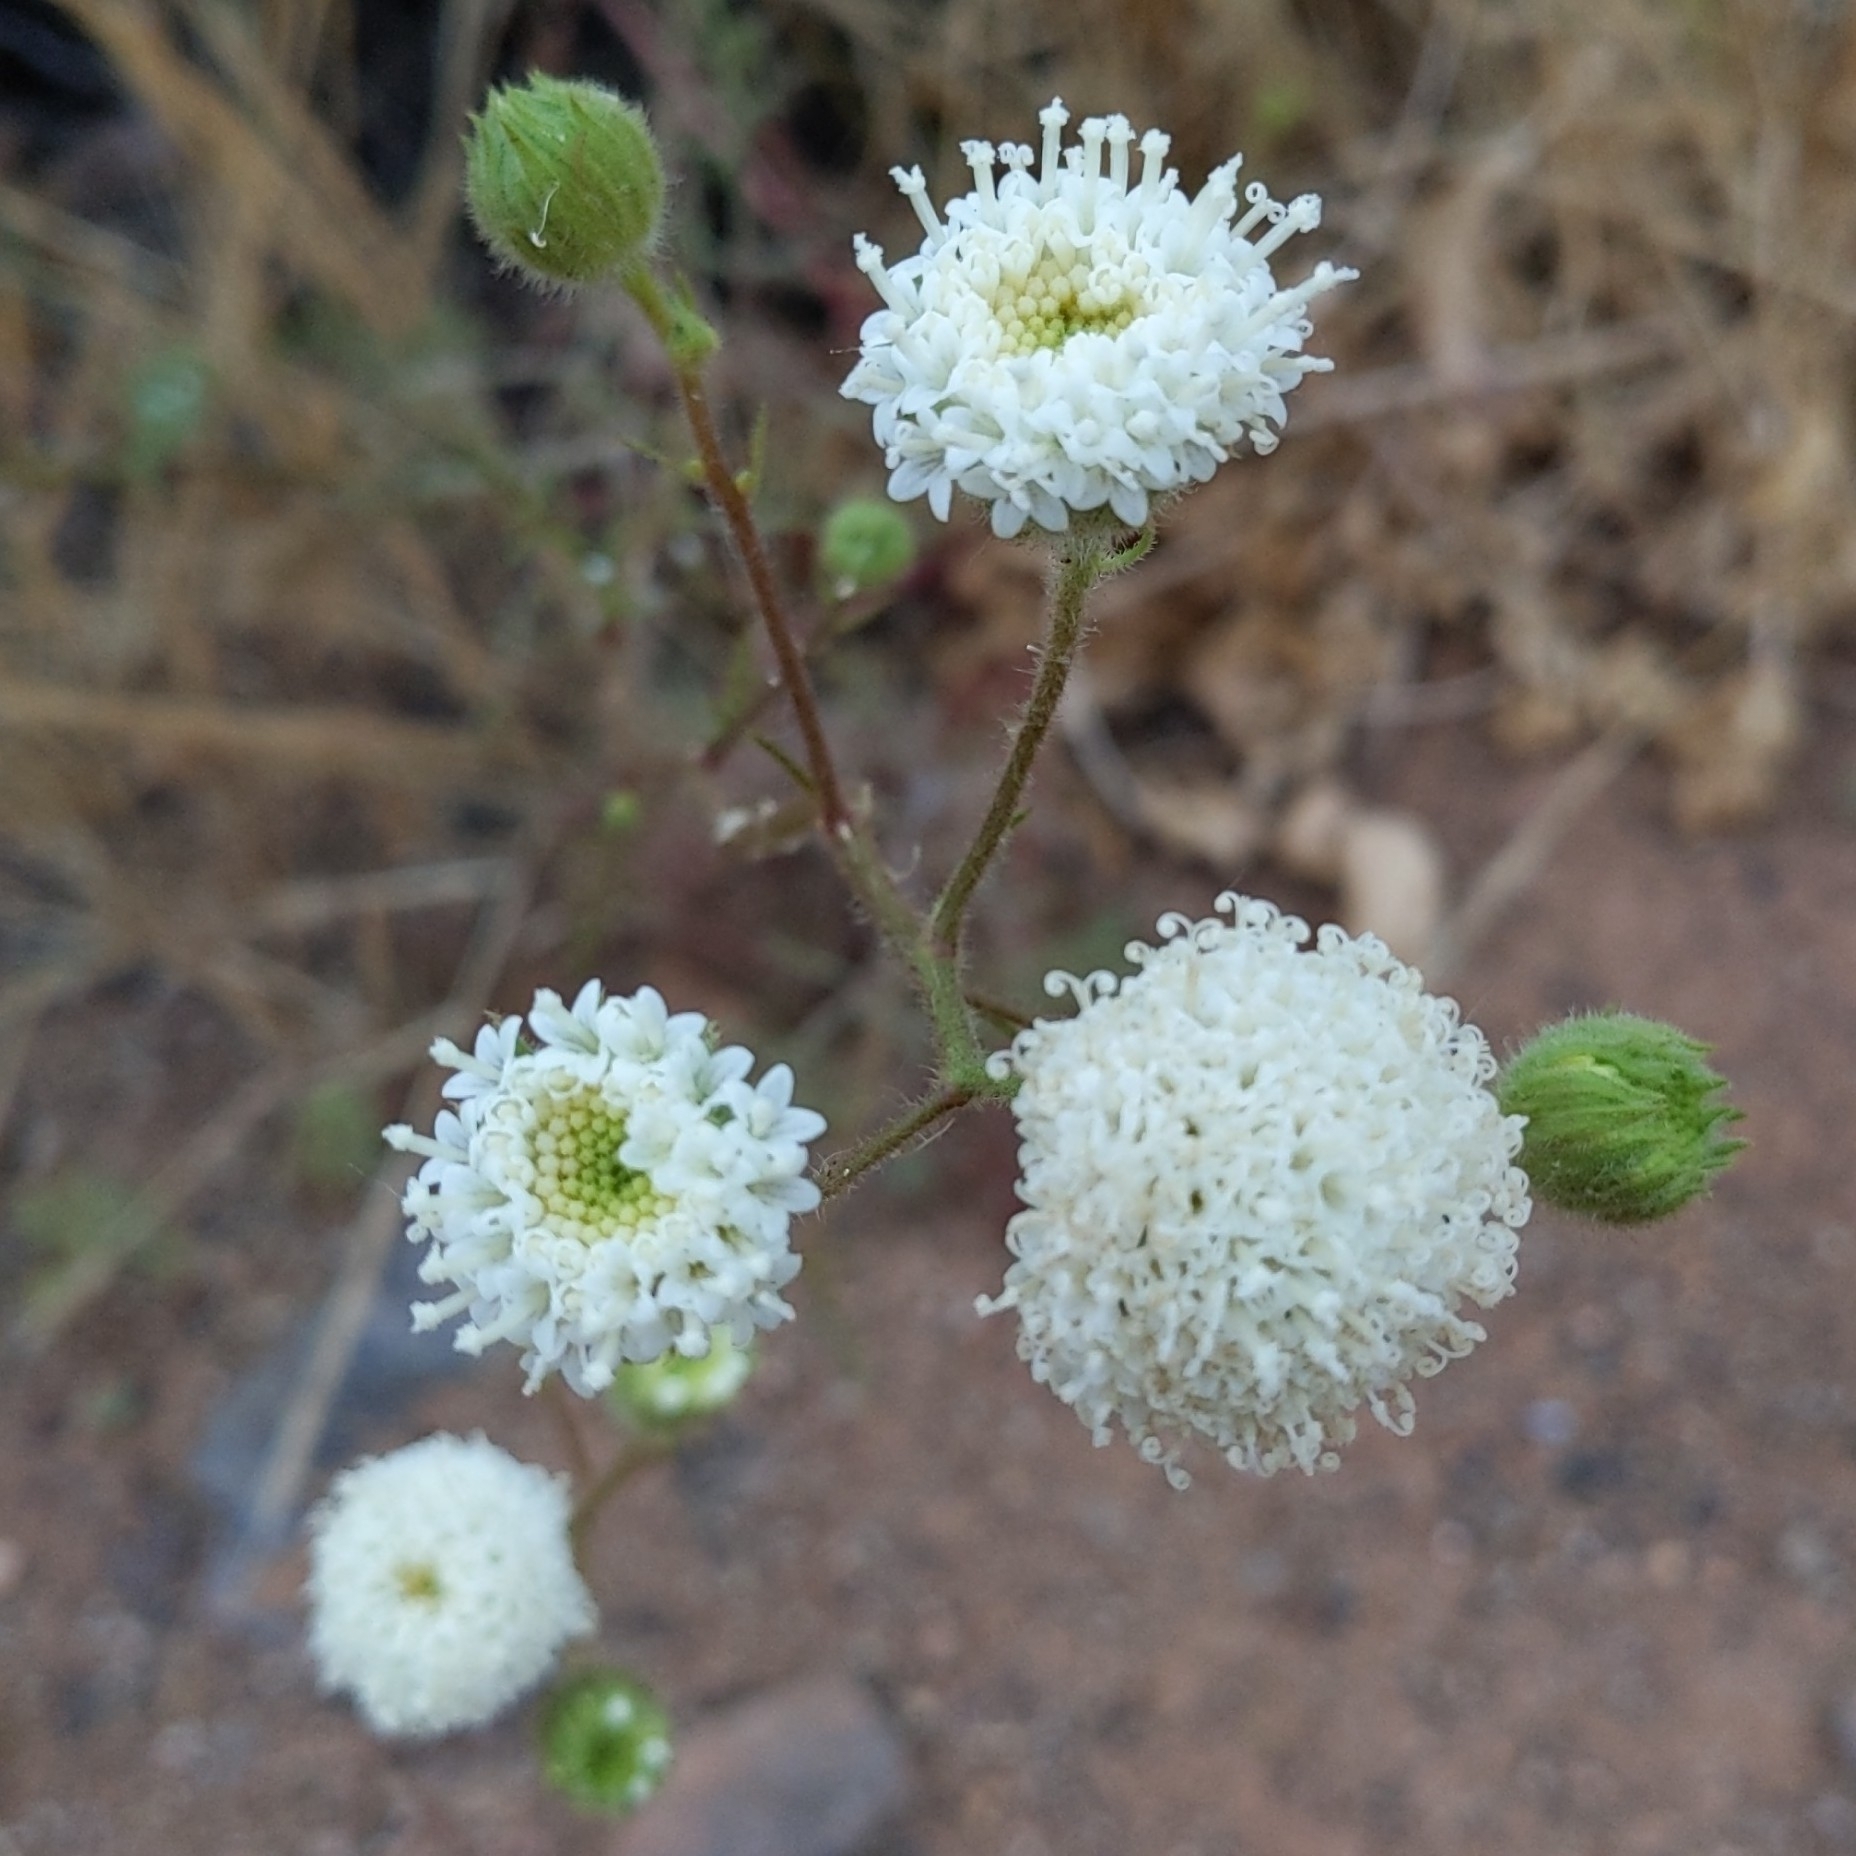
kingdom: Plantae
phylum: Tracheophyta
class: Magnoliopsida
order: Asterales
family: Asteraceae
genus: Chaenactis
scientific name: Chaenactis artemisiifolia
